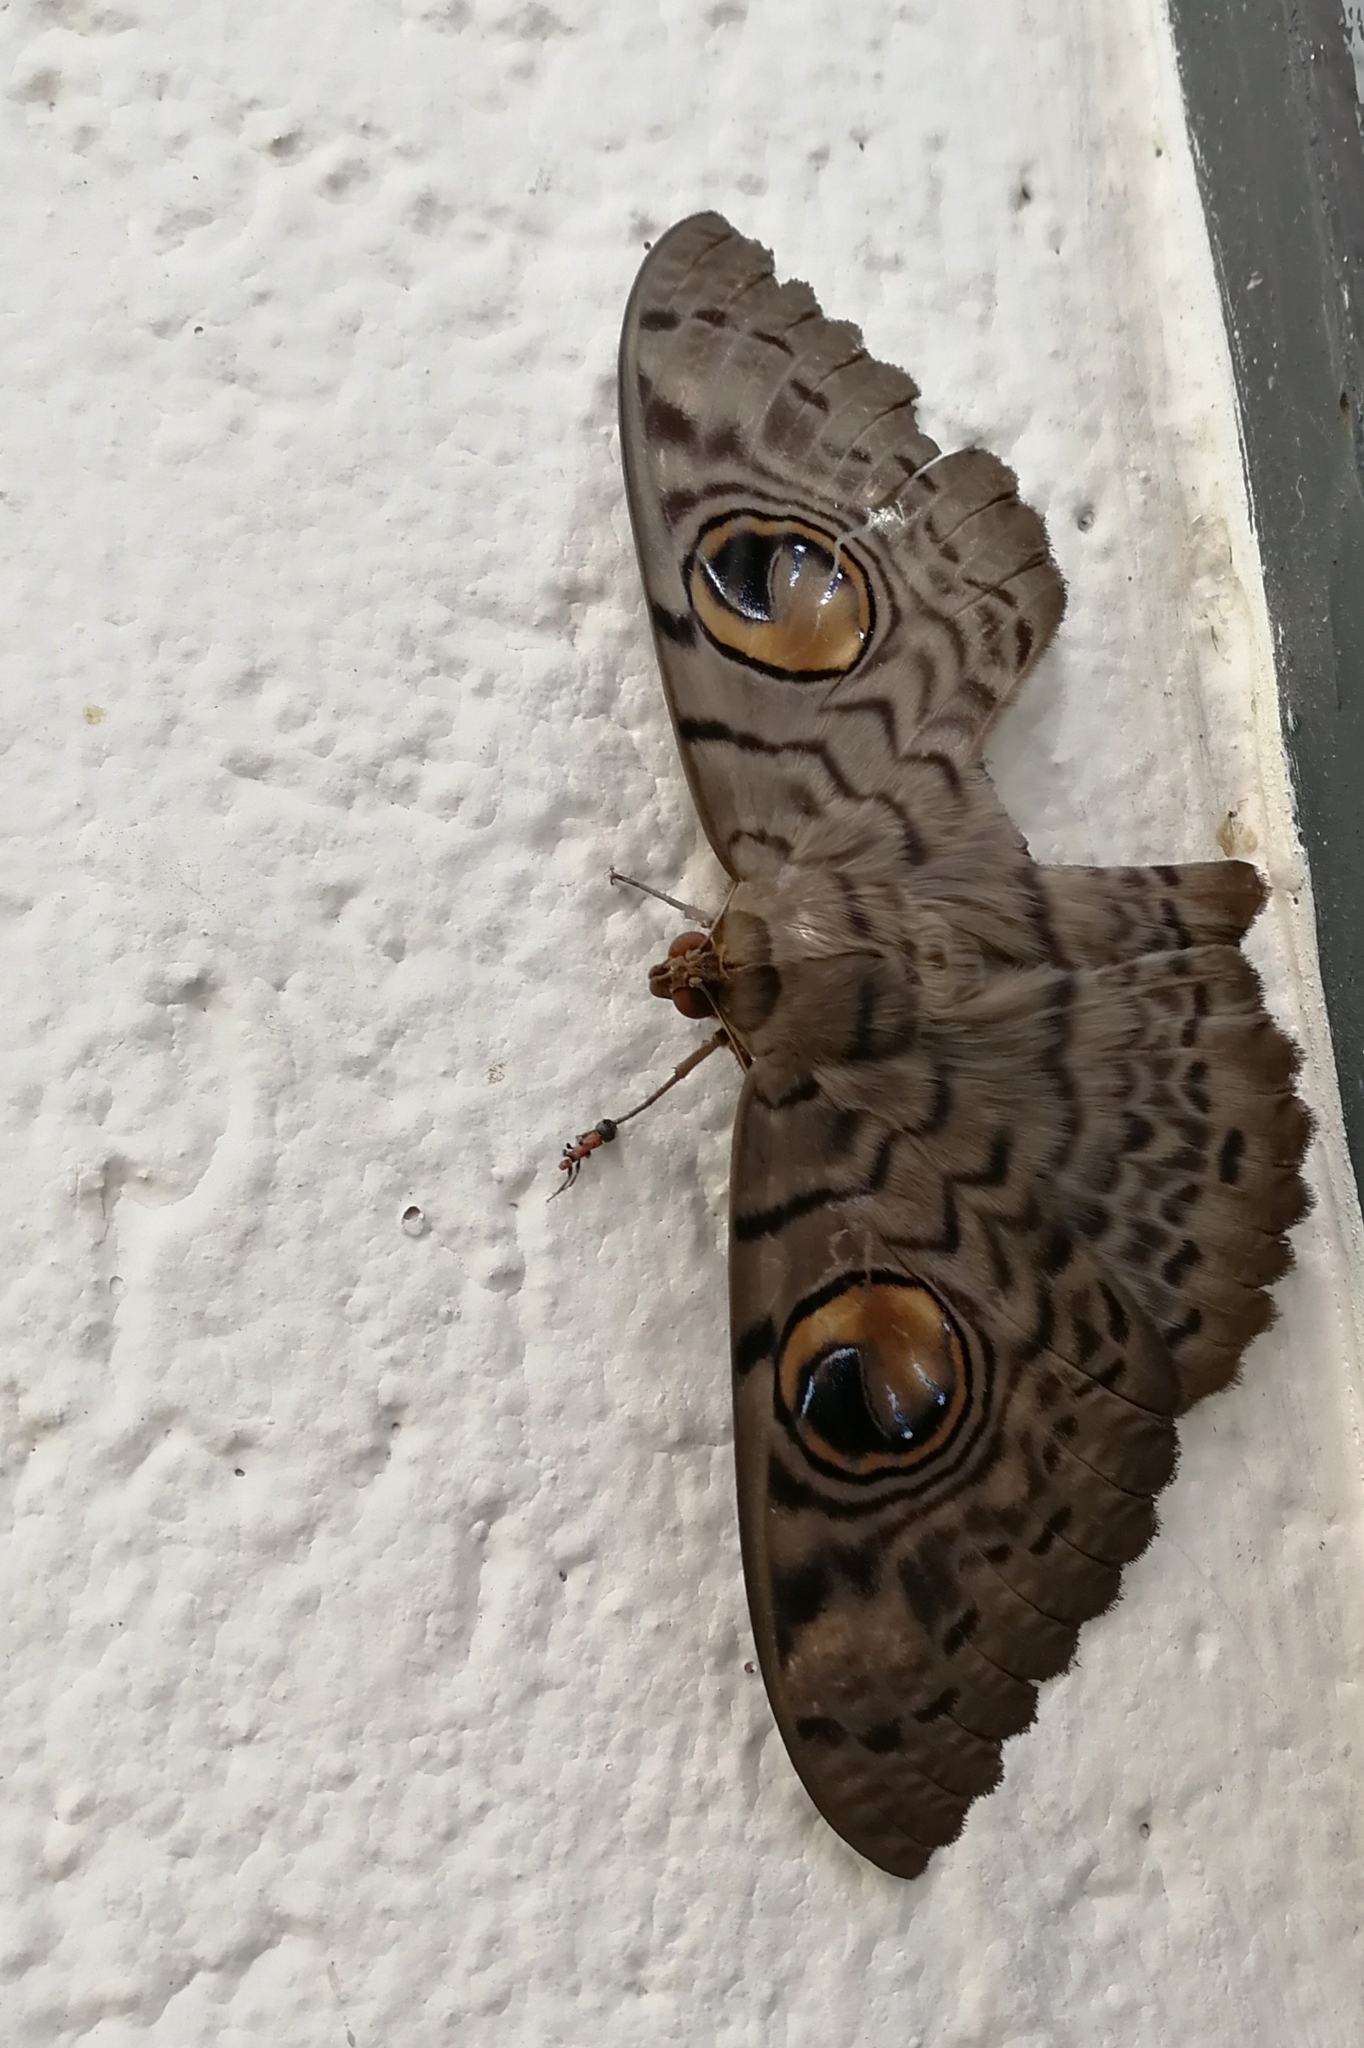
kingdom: Animalia
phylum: Arthropoda
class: Insecta
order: Lepidoptera
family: Erebidae
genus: Erebus
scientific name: Erebus macrops
